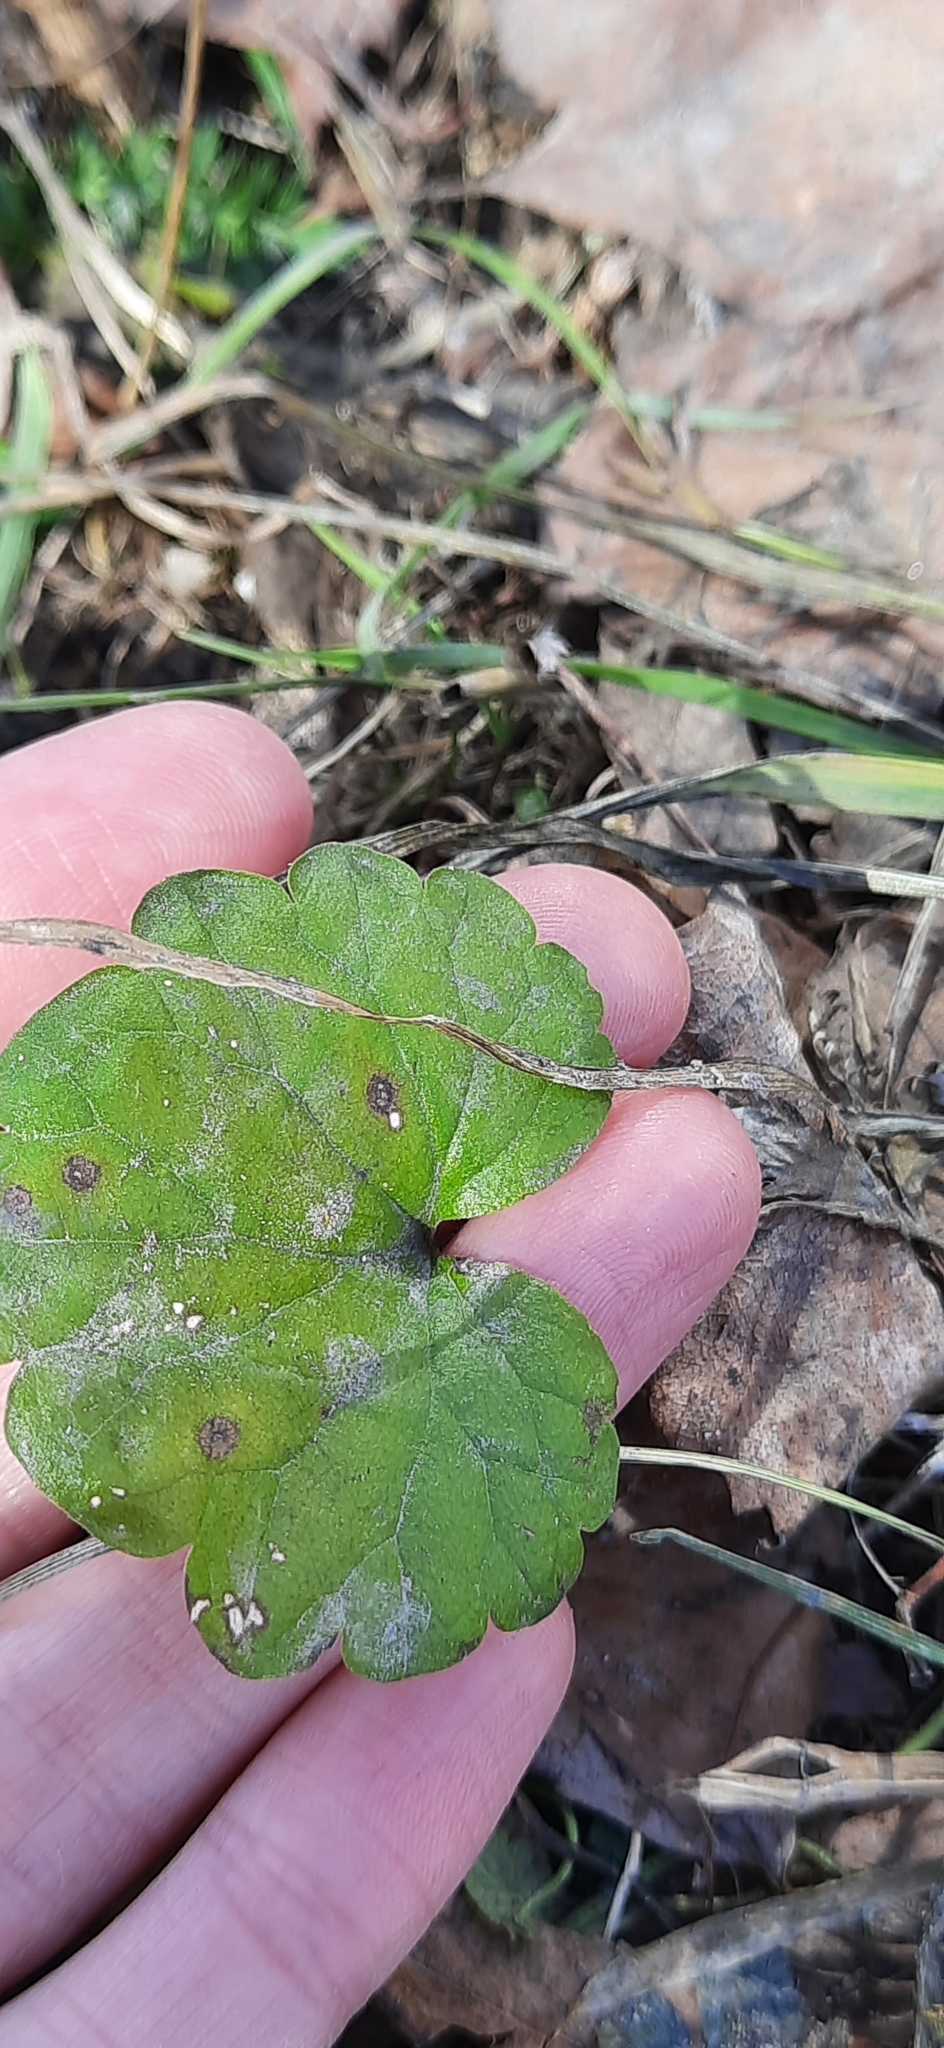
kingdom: Plantae
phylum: Tracheophyta
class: Magnoliopsida
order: Lamiales
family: Lamiaceae
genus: Glechoma
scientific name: Glechoma hederacea
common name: Ground ivy
